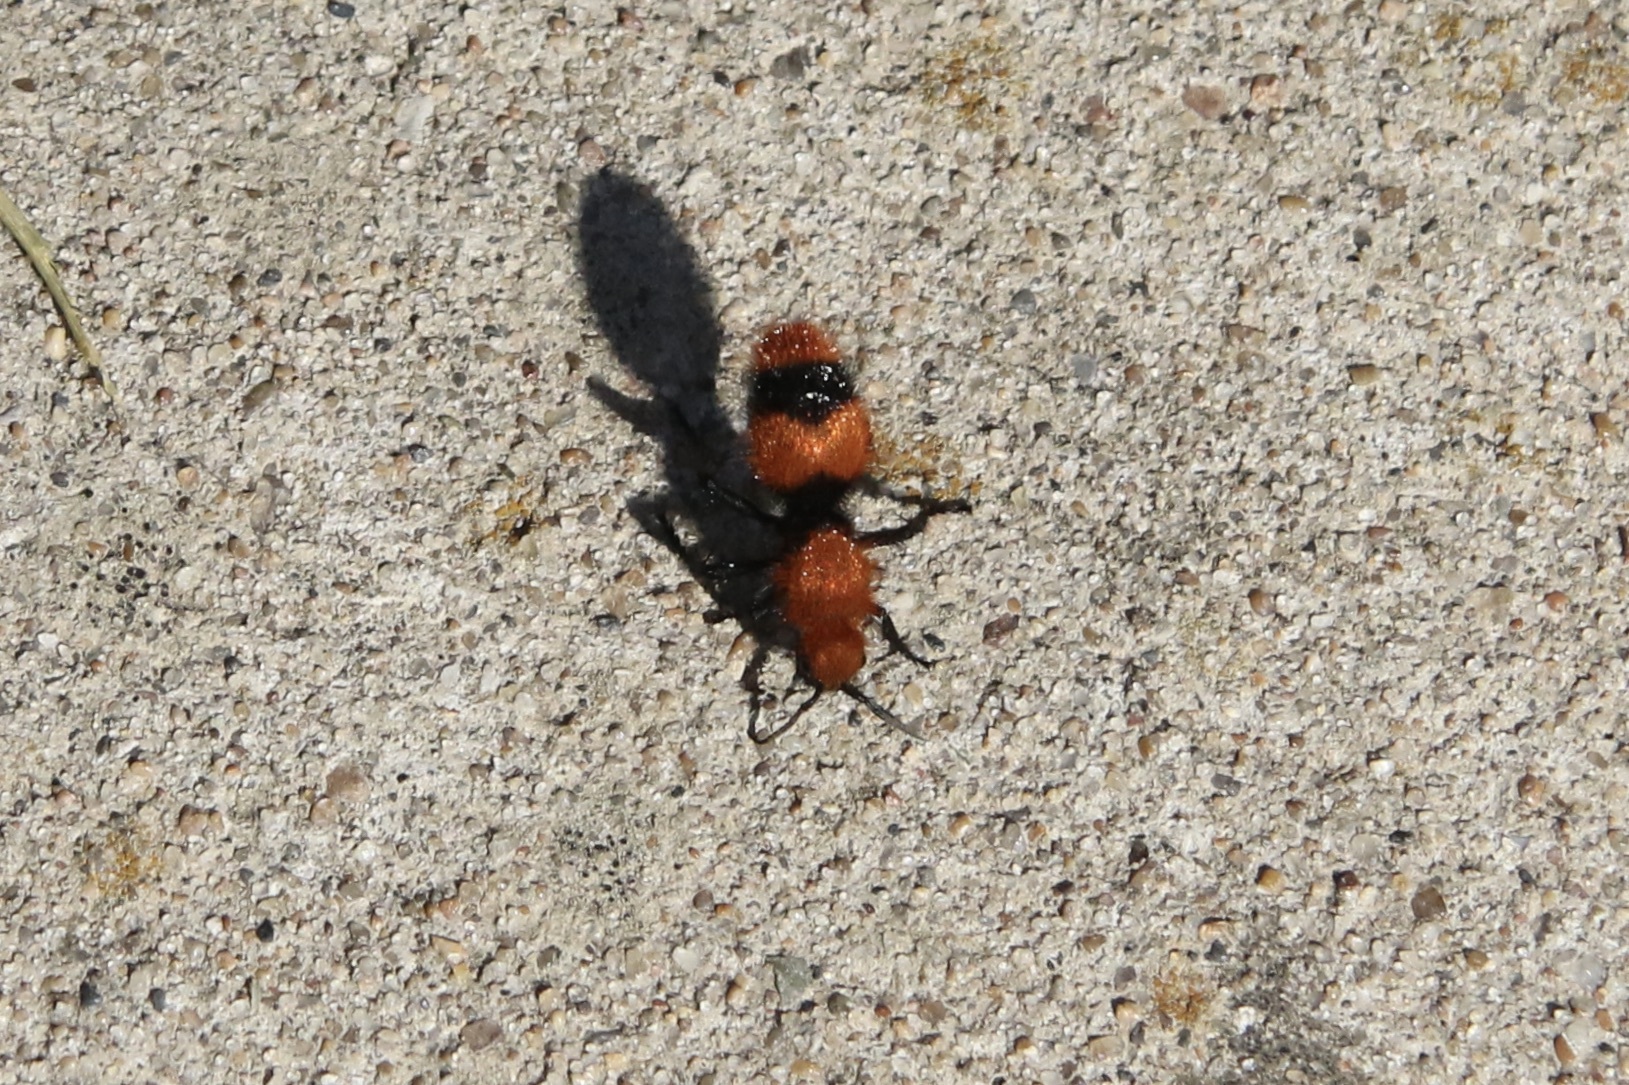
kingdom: Animalia
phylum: Arthropoda
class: Insecta
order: Hymenoptera
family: Mutillidae
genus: Dasymutilla
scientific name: Dasymutilla occidentalis
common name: Common eastern velvet ant
